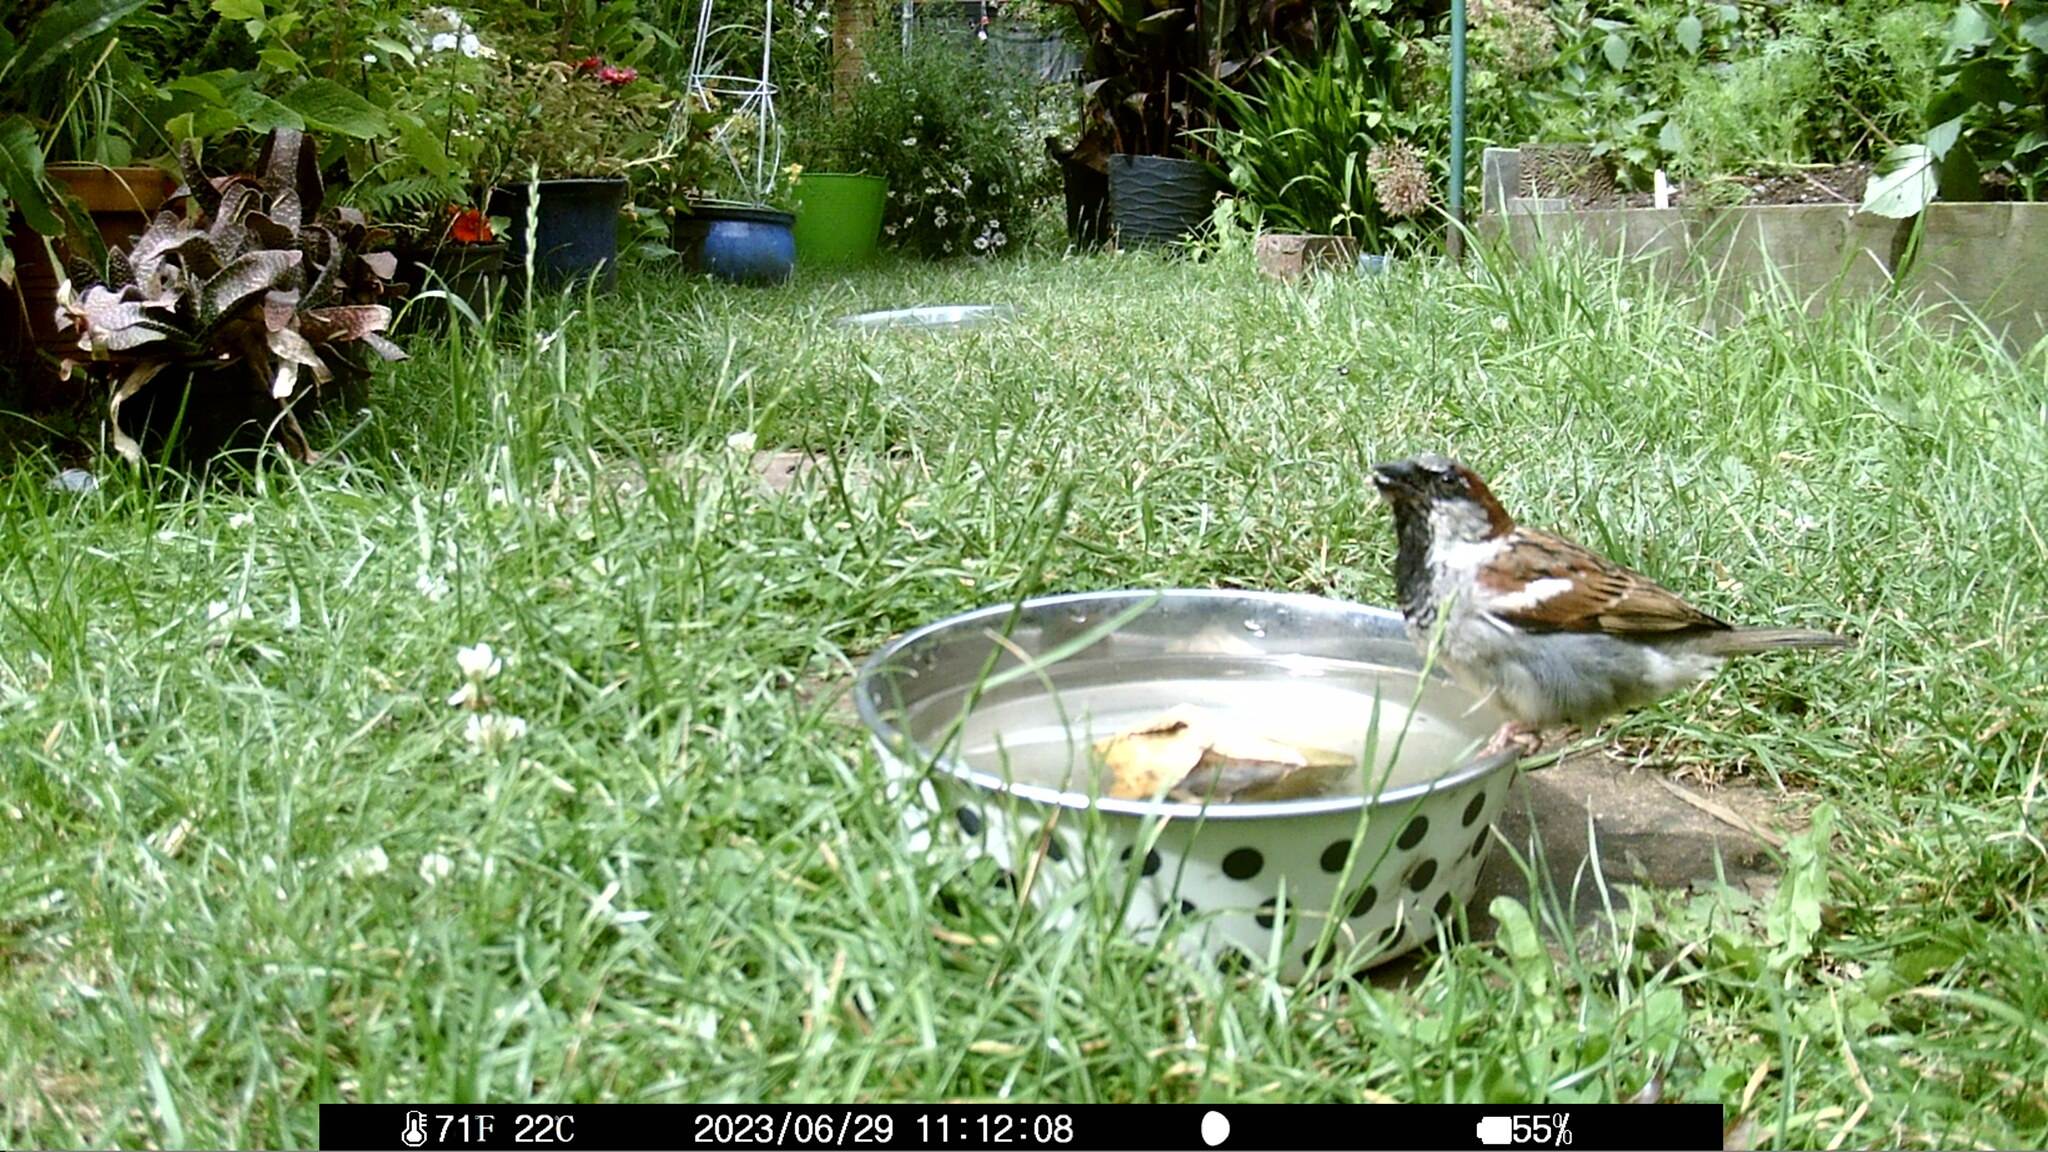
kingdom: Animalia
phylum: Chordata
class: Aves
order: Passeriformes
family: Passeridae
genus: Passer
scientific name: Passer domesticus
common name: House sparrow
